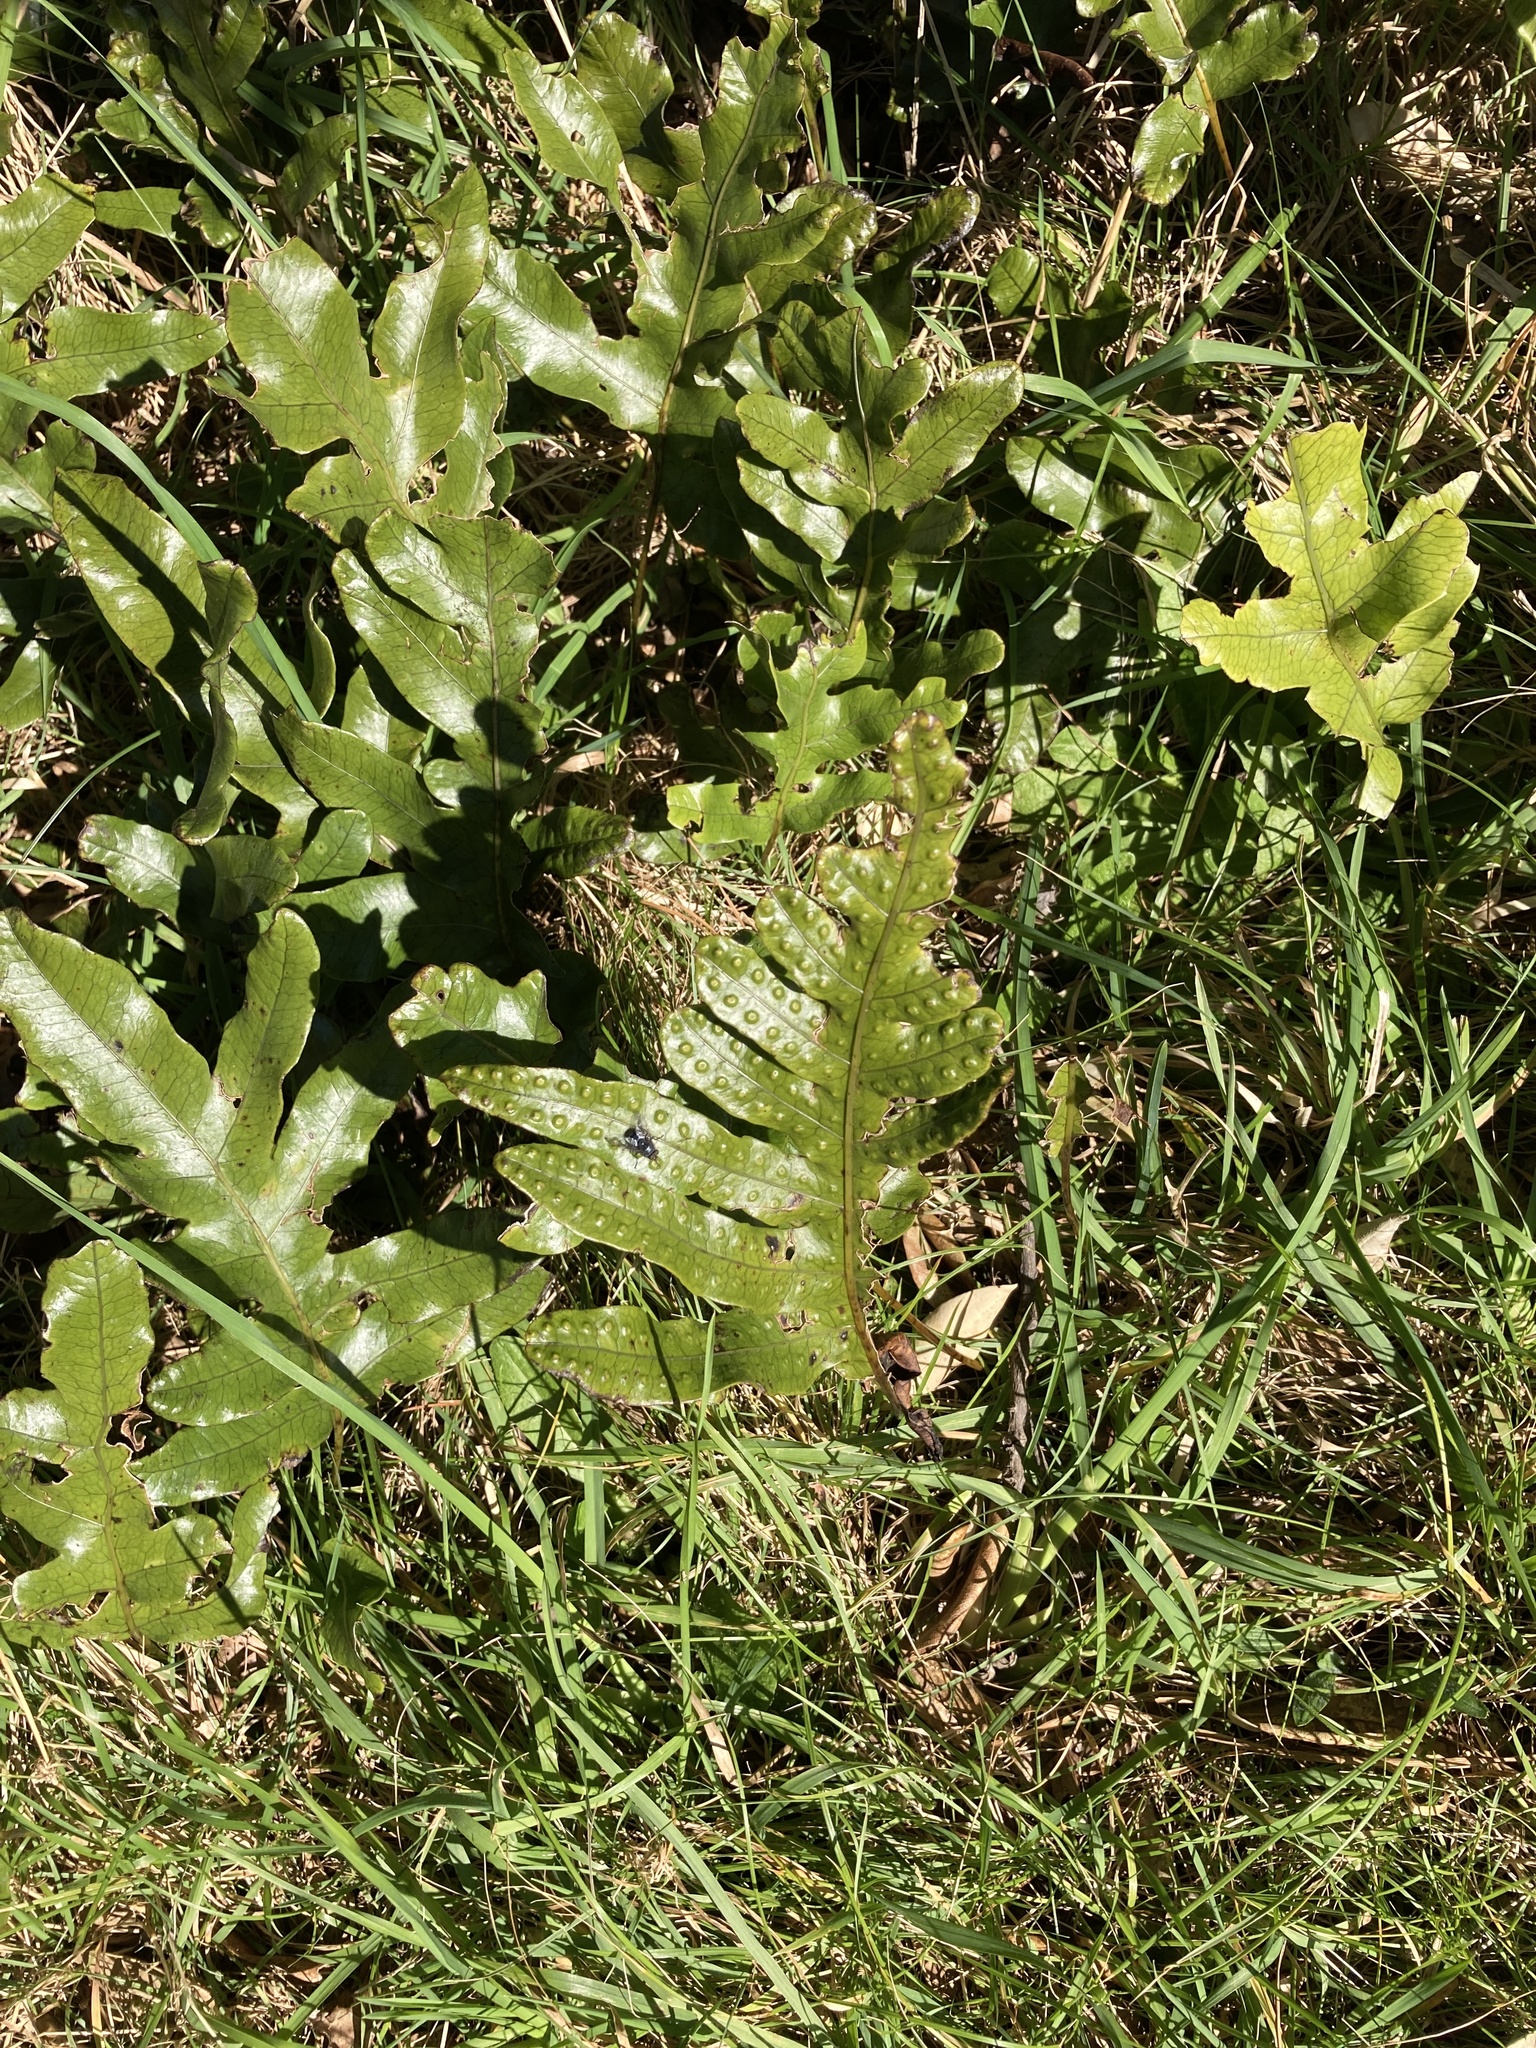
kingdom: Plantae
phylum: Tracheophyta
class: Polypodiopsida
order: Polypodiales
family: Polypodiaceae
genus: Lecanopteris
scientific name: Lecanopteris pustulata
